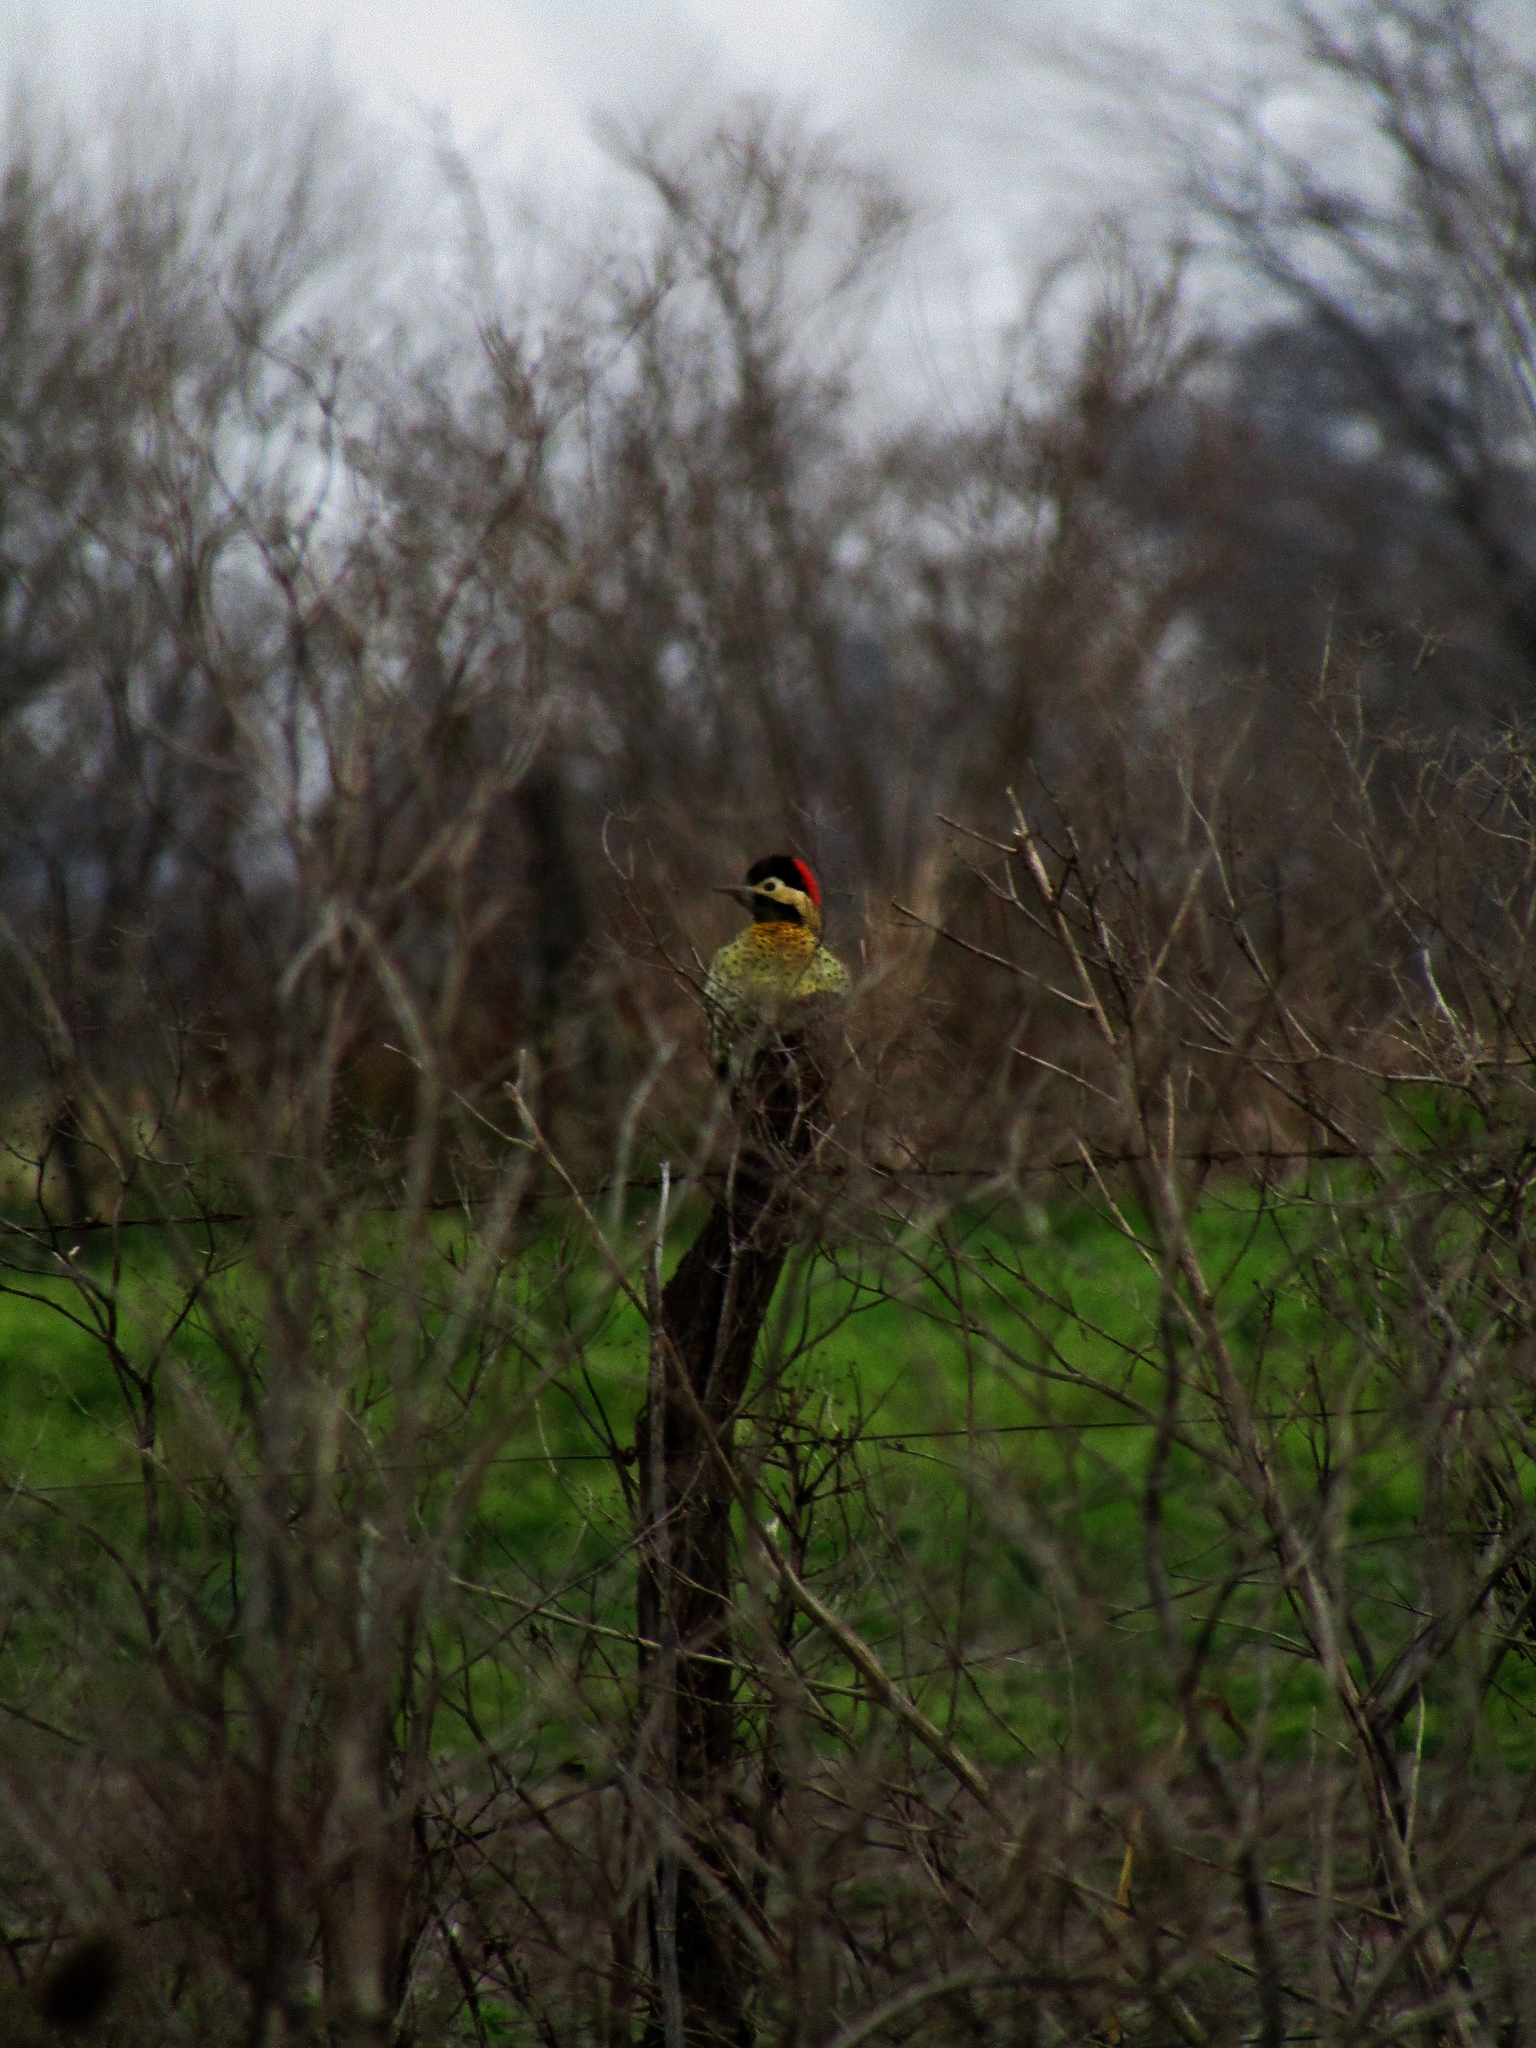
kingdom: Animalia
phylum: Chordata
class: Aves
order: Piciformes
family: Picidae
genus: Colaptes
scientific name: Colaptes melanochloros
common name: Green-barred woodpecker
